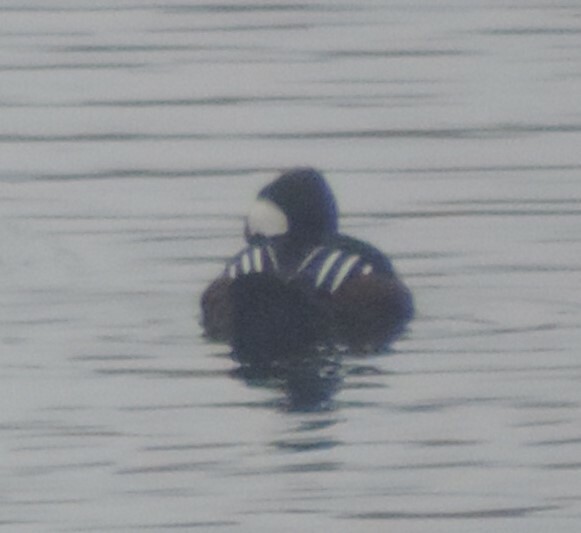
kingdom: Animalia
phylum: Chordata
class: Aves
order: Anseriformes
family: Anatidae
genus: Lophodytes
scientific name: Lophodytes cucullatus
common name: Hooded merganser
